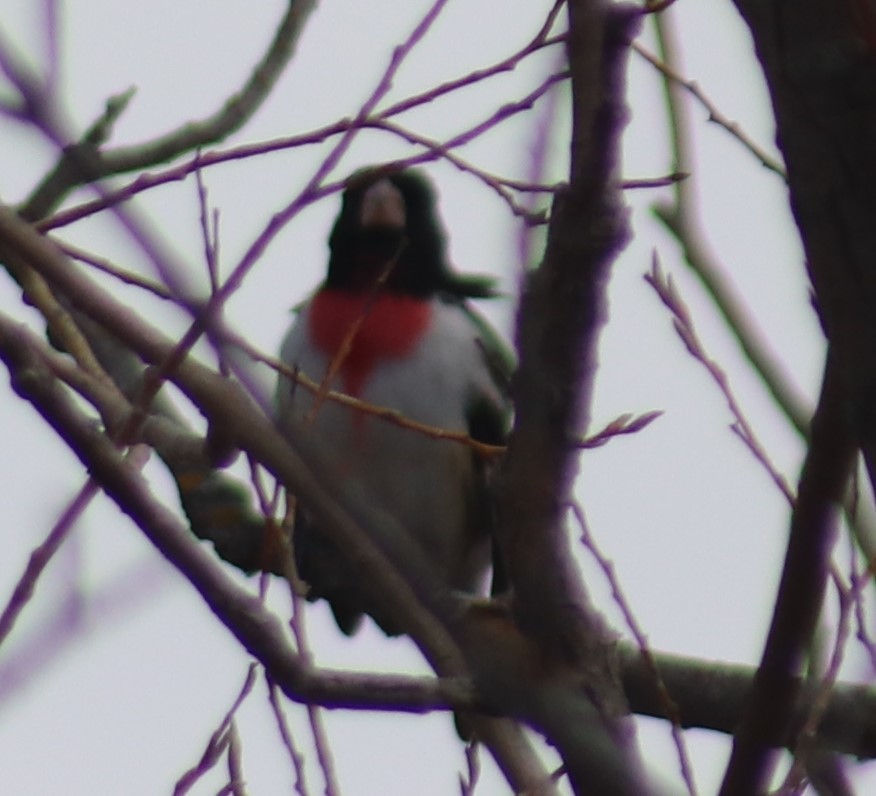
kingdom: Animalia
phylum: Chordata
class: Aves
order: Passeriformes
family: Cardinalidae
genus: Pheucticus
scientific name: Pheucticus ludovicianus
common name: Rose-breasted grosbeak
